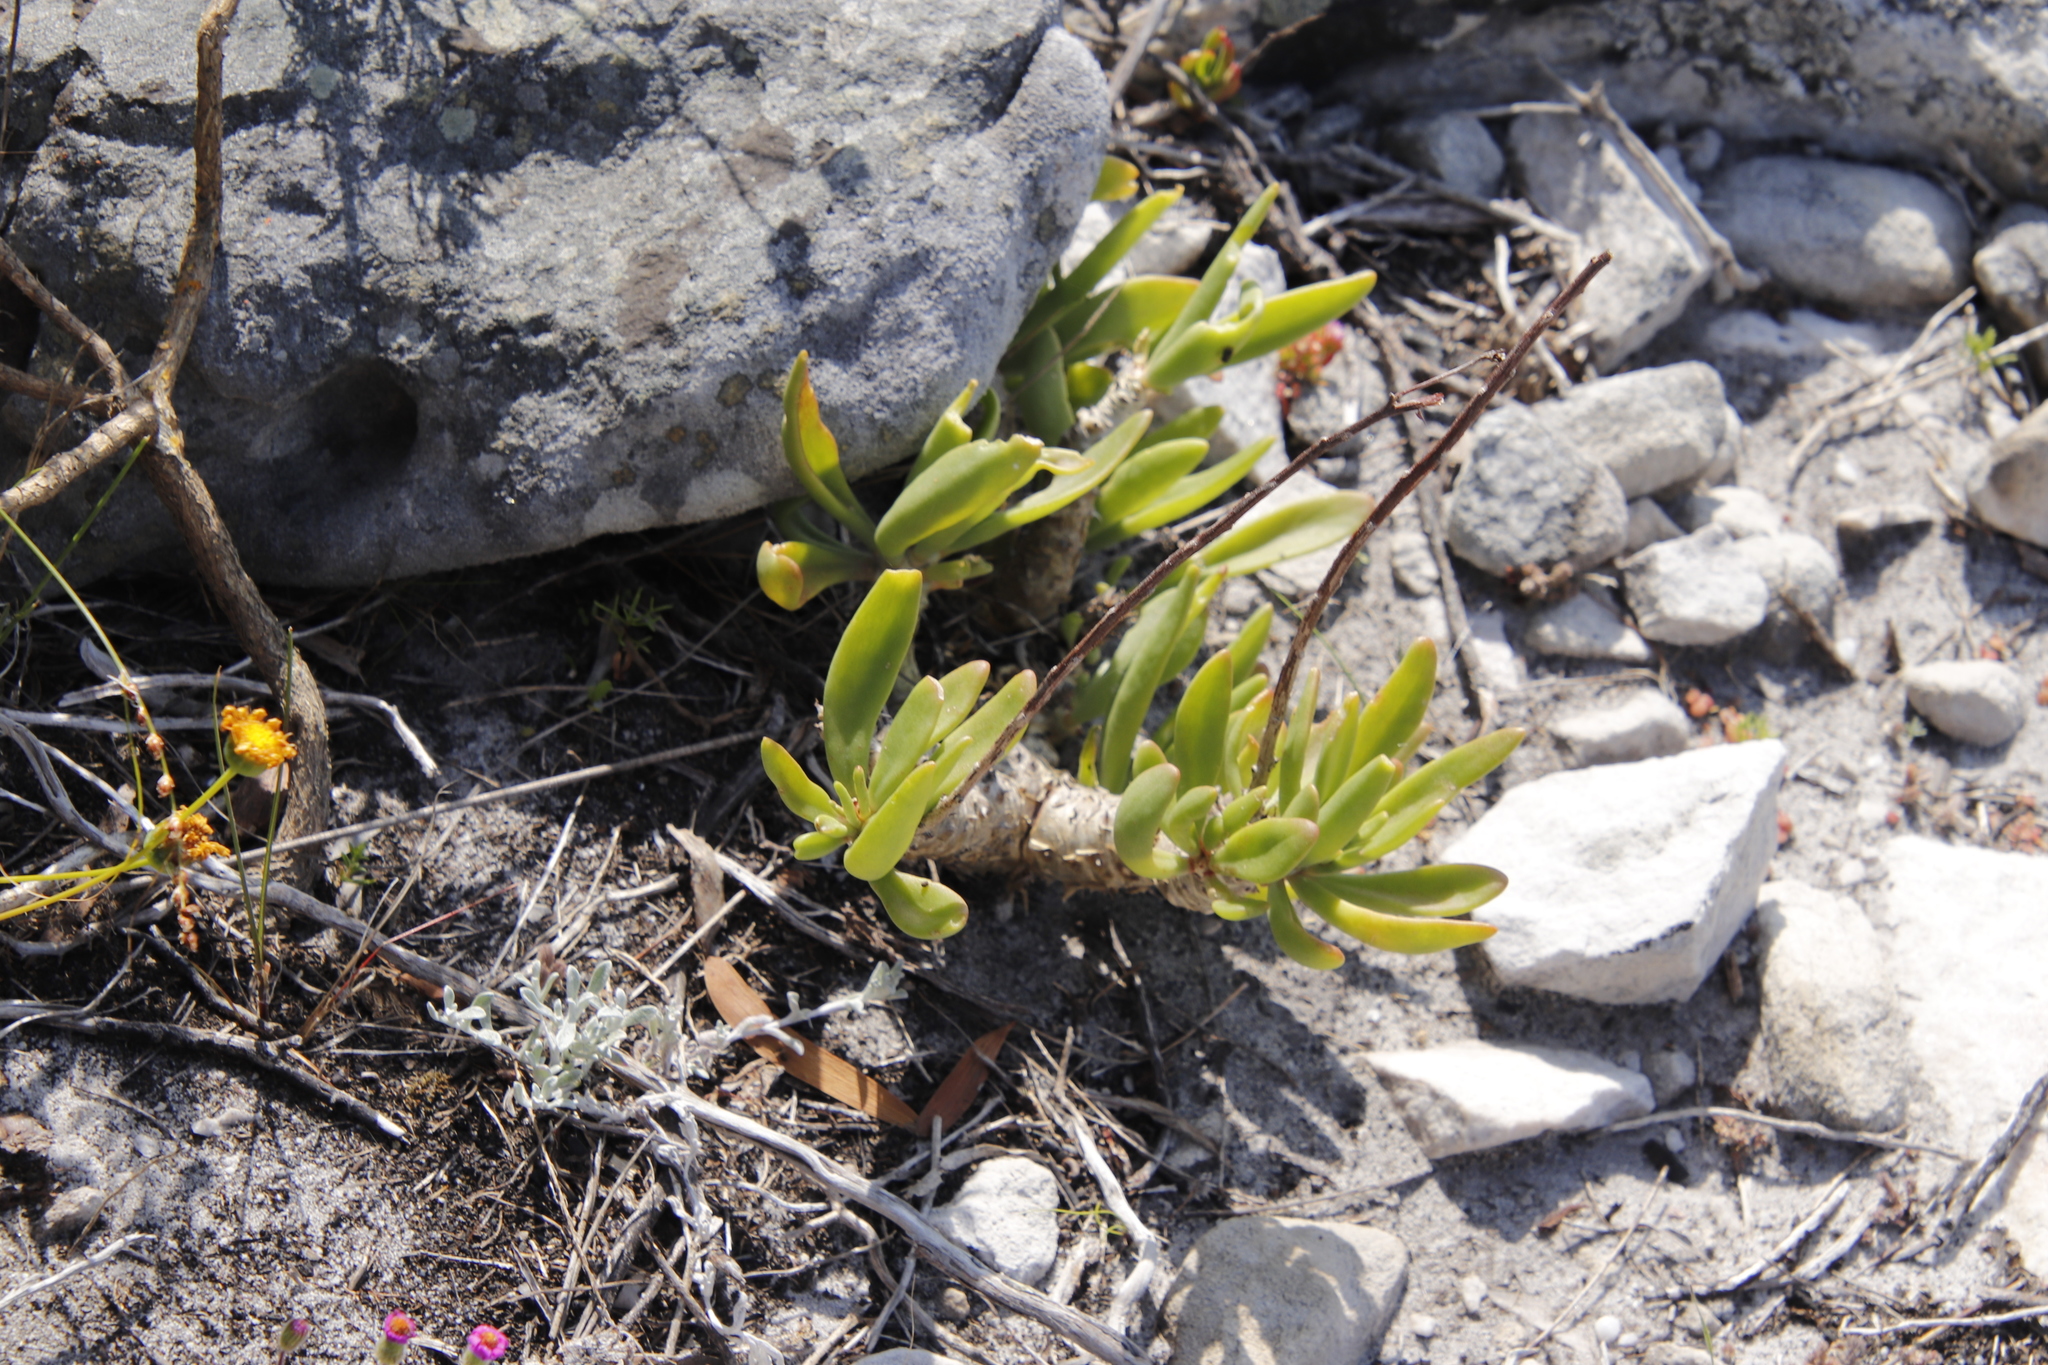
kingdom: Plantae
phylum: Tracheophyta
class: Magnoliopsida
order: Saxifragales
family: Crassulaceae
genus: Tylecodon
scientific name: Tylecodon grandiflorus
